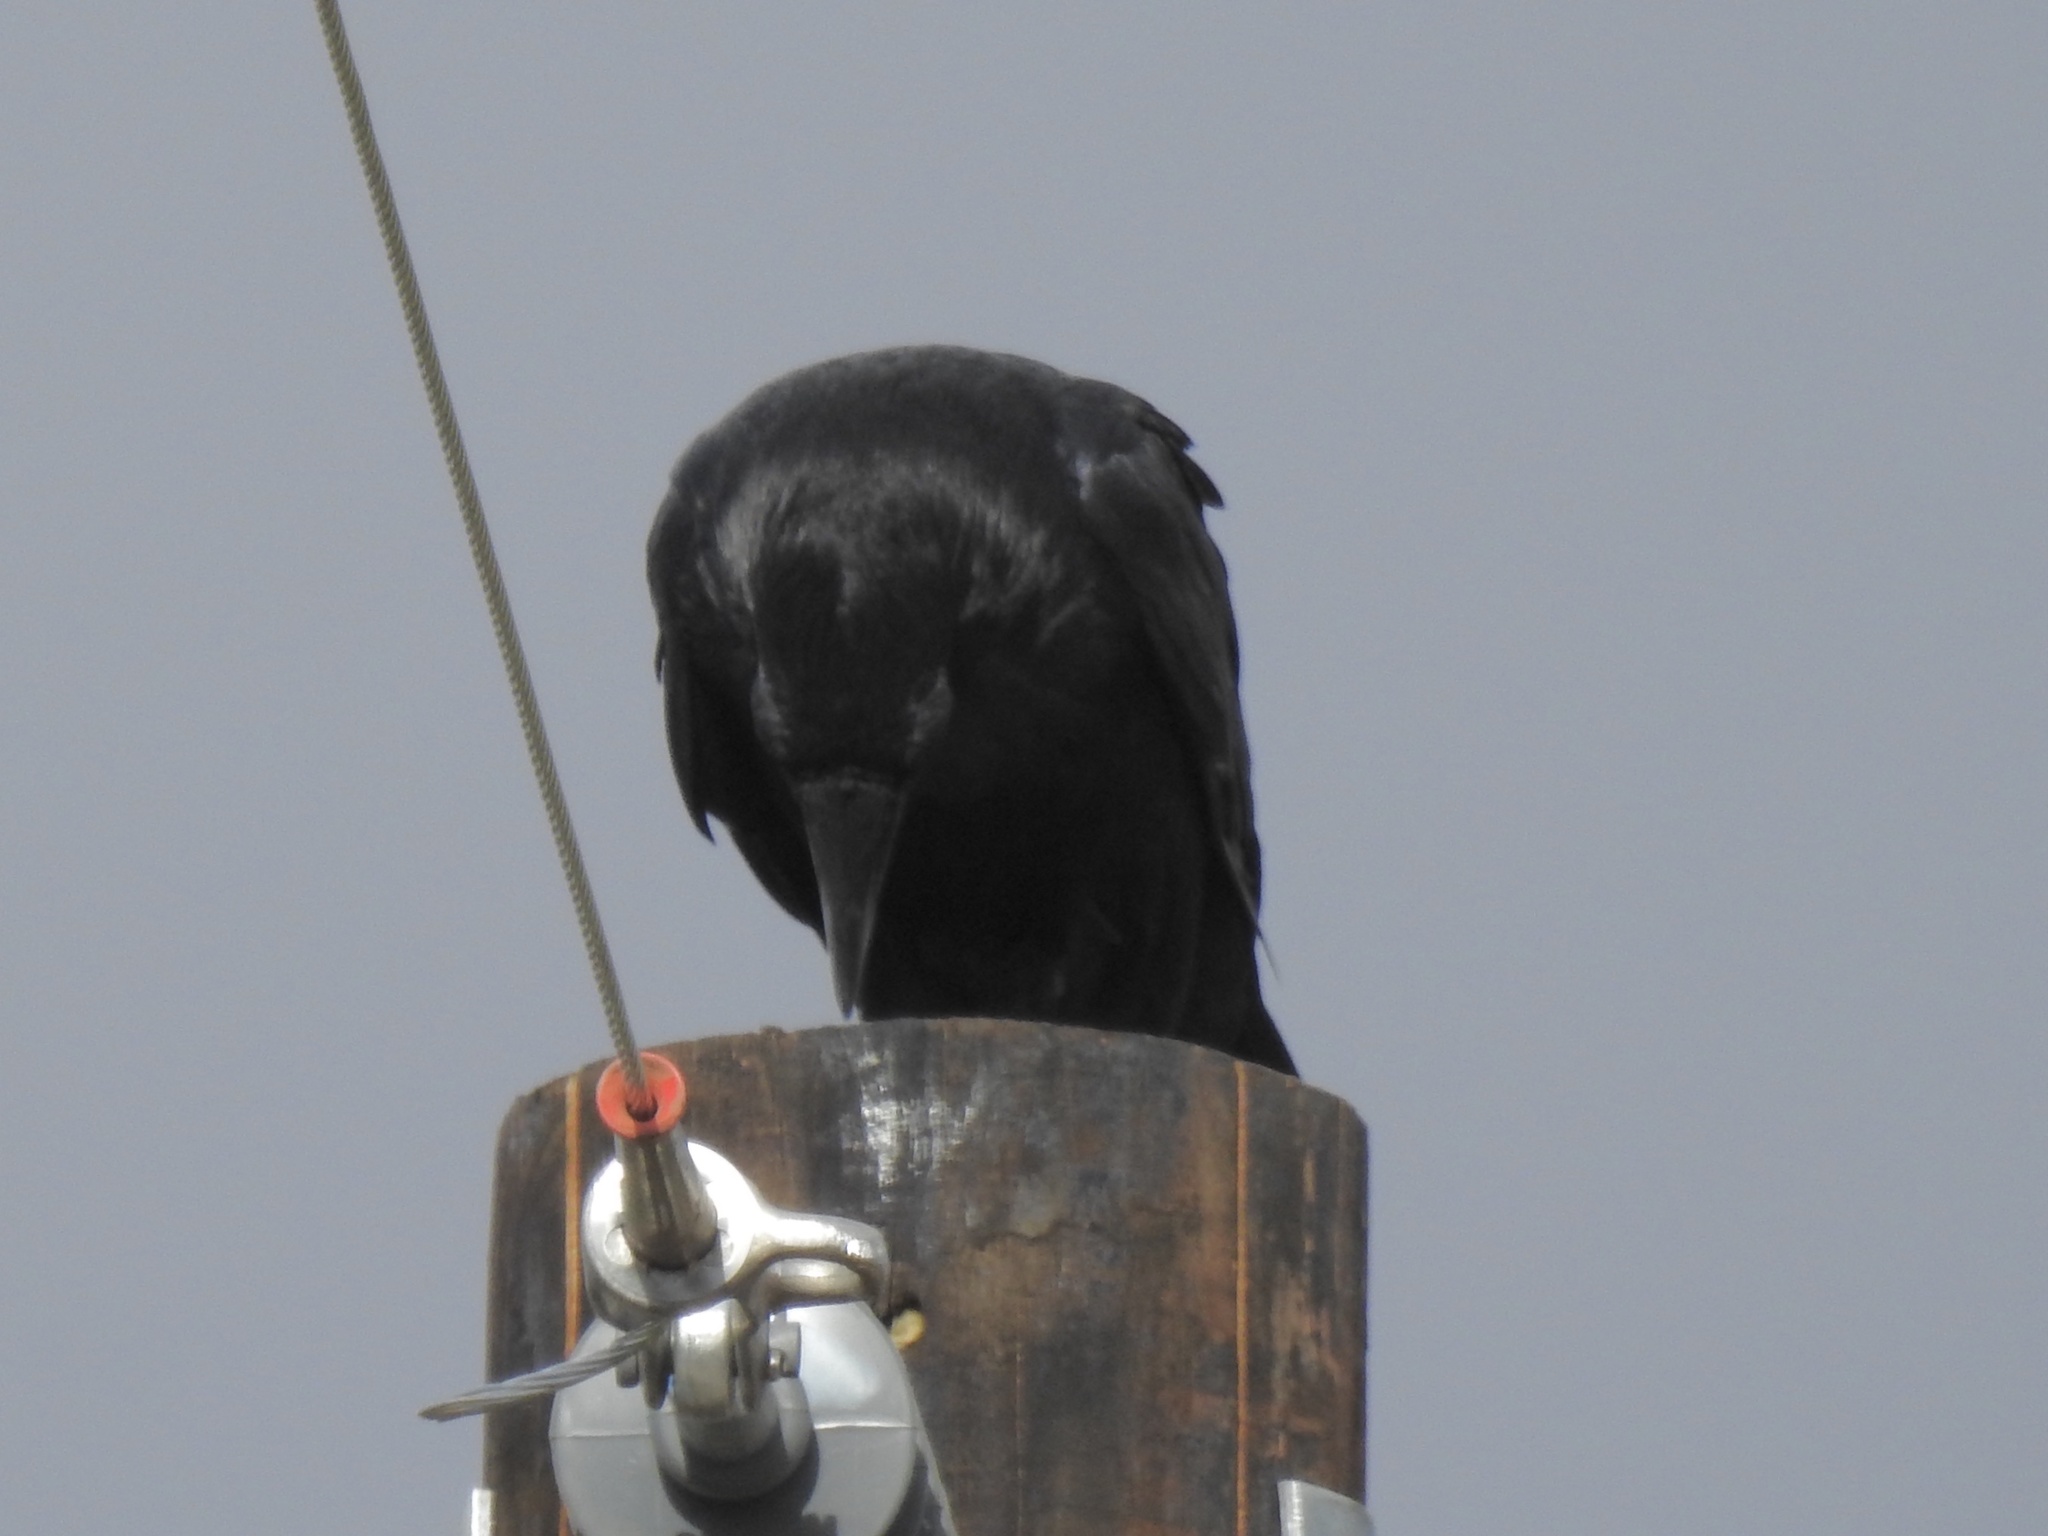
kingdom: Animalia
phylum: Chordata
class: Aves
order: Passeriformes
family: Corvidae
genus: Corvus
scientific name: Corvus corax
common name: Common raven
